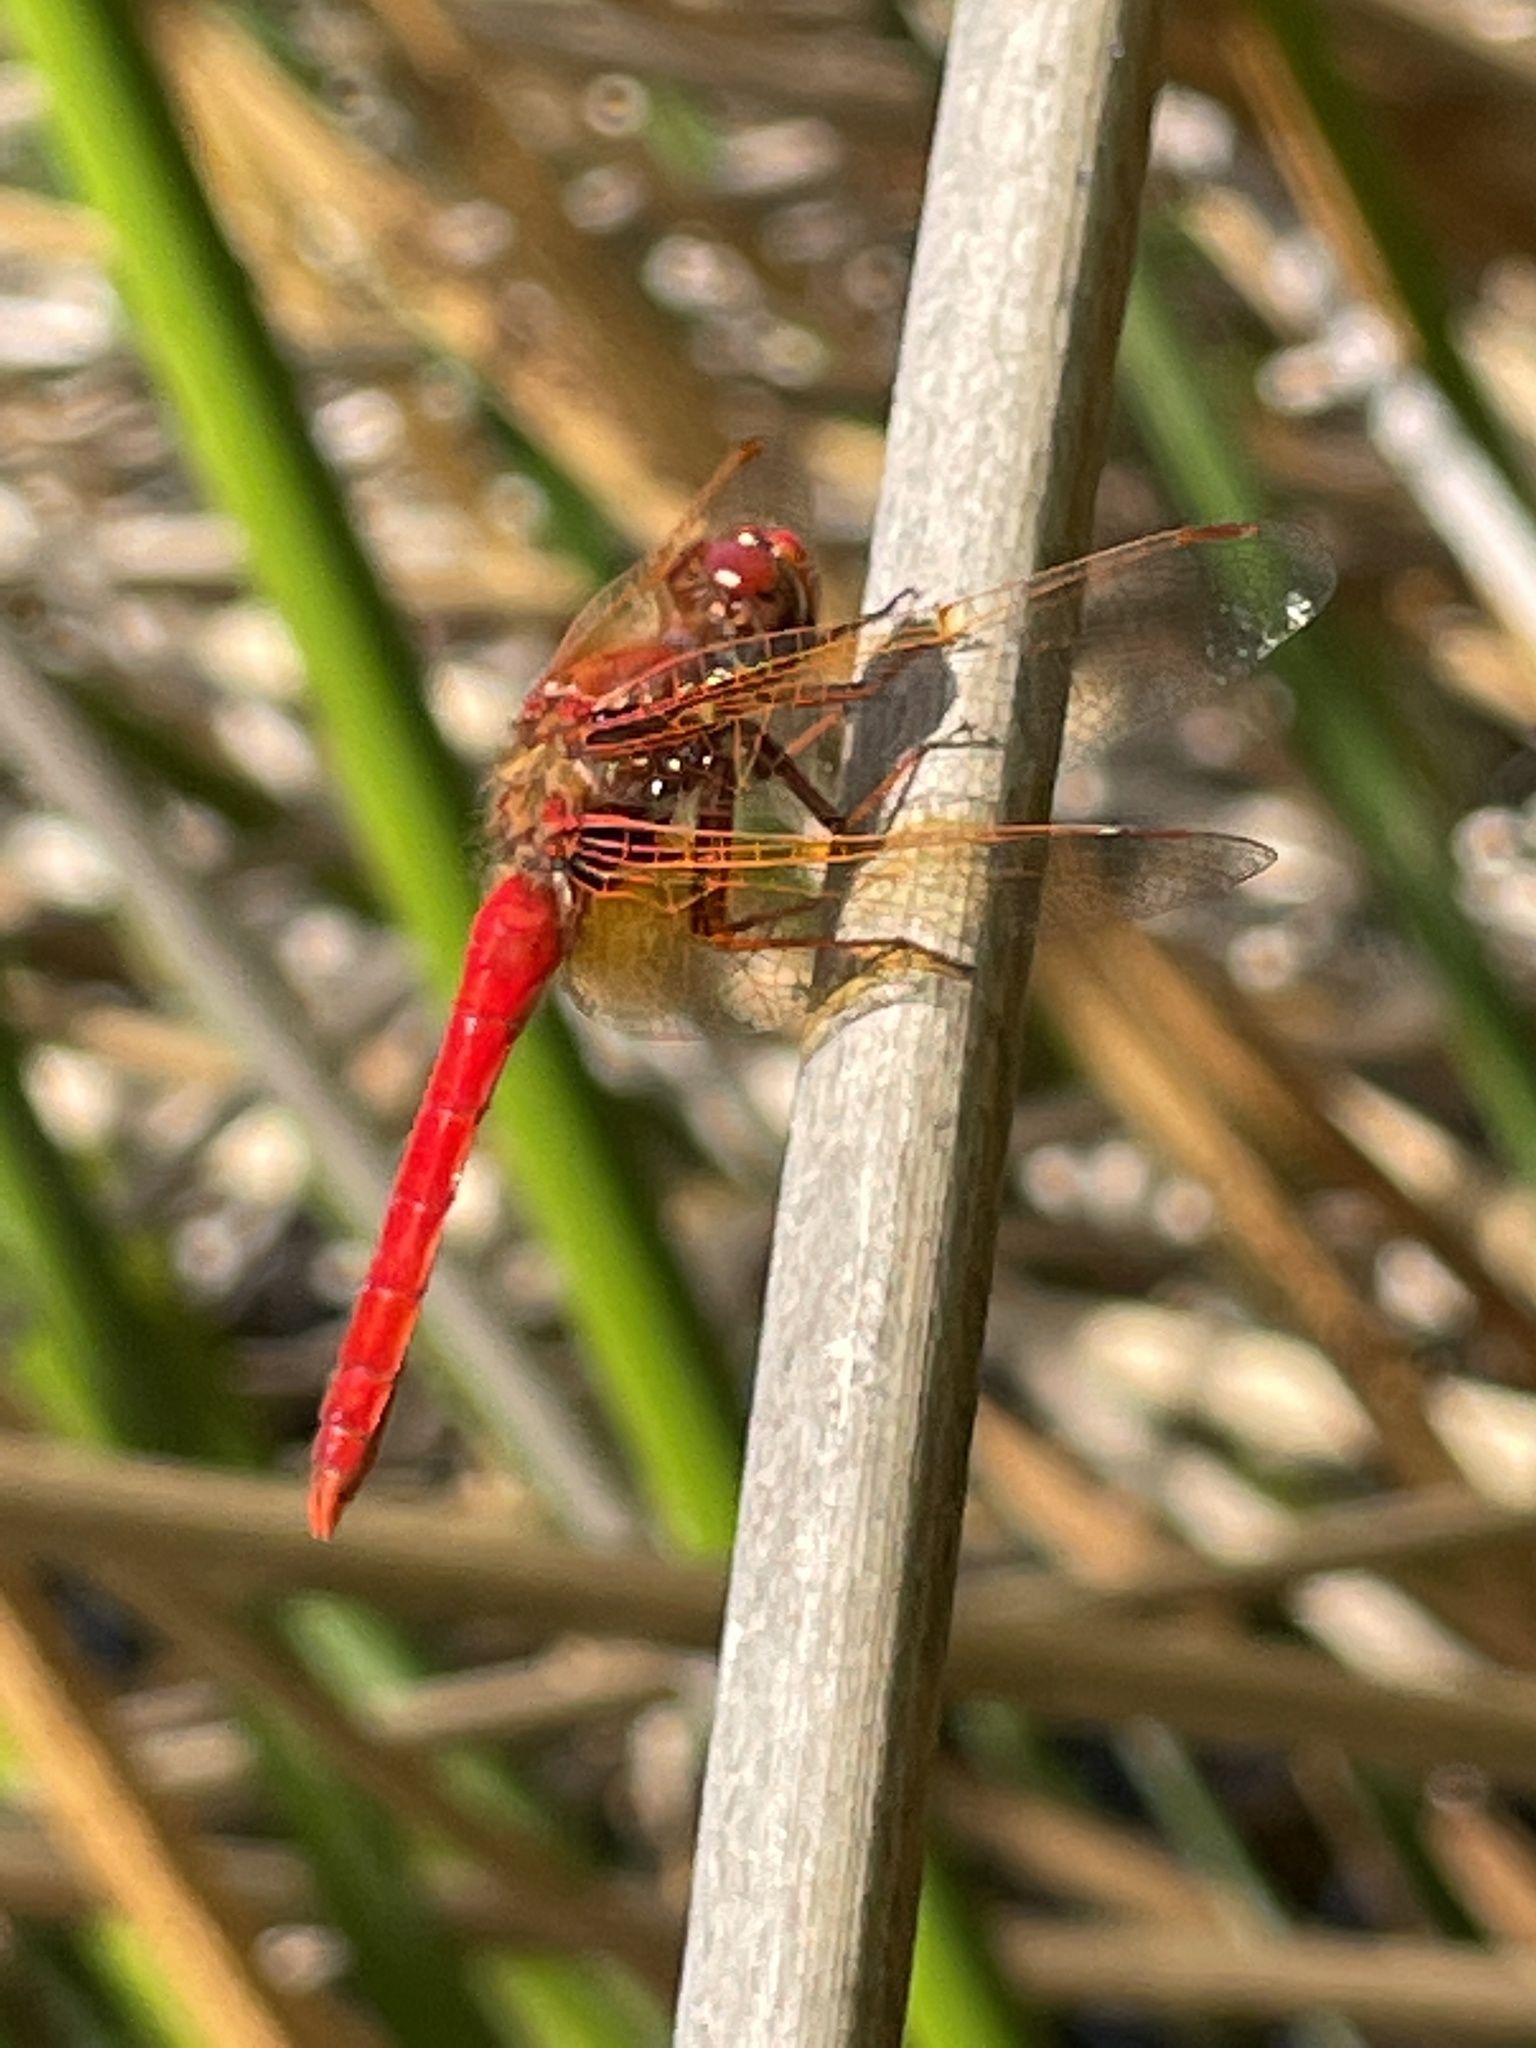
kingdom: Animalia
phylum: Arthropoda
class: Insecta
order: Odonata
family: Libellulidae
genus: Sympetrum
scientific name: Sympetrum illotum
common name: Cardinal meadowhawk
